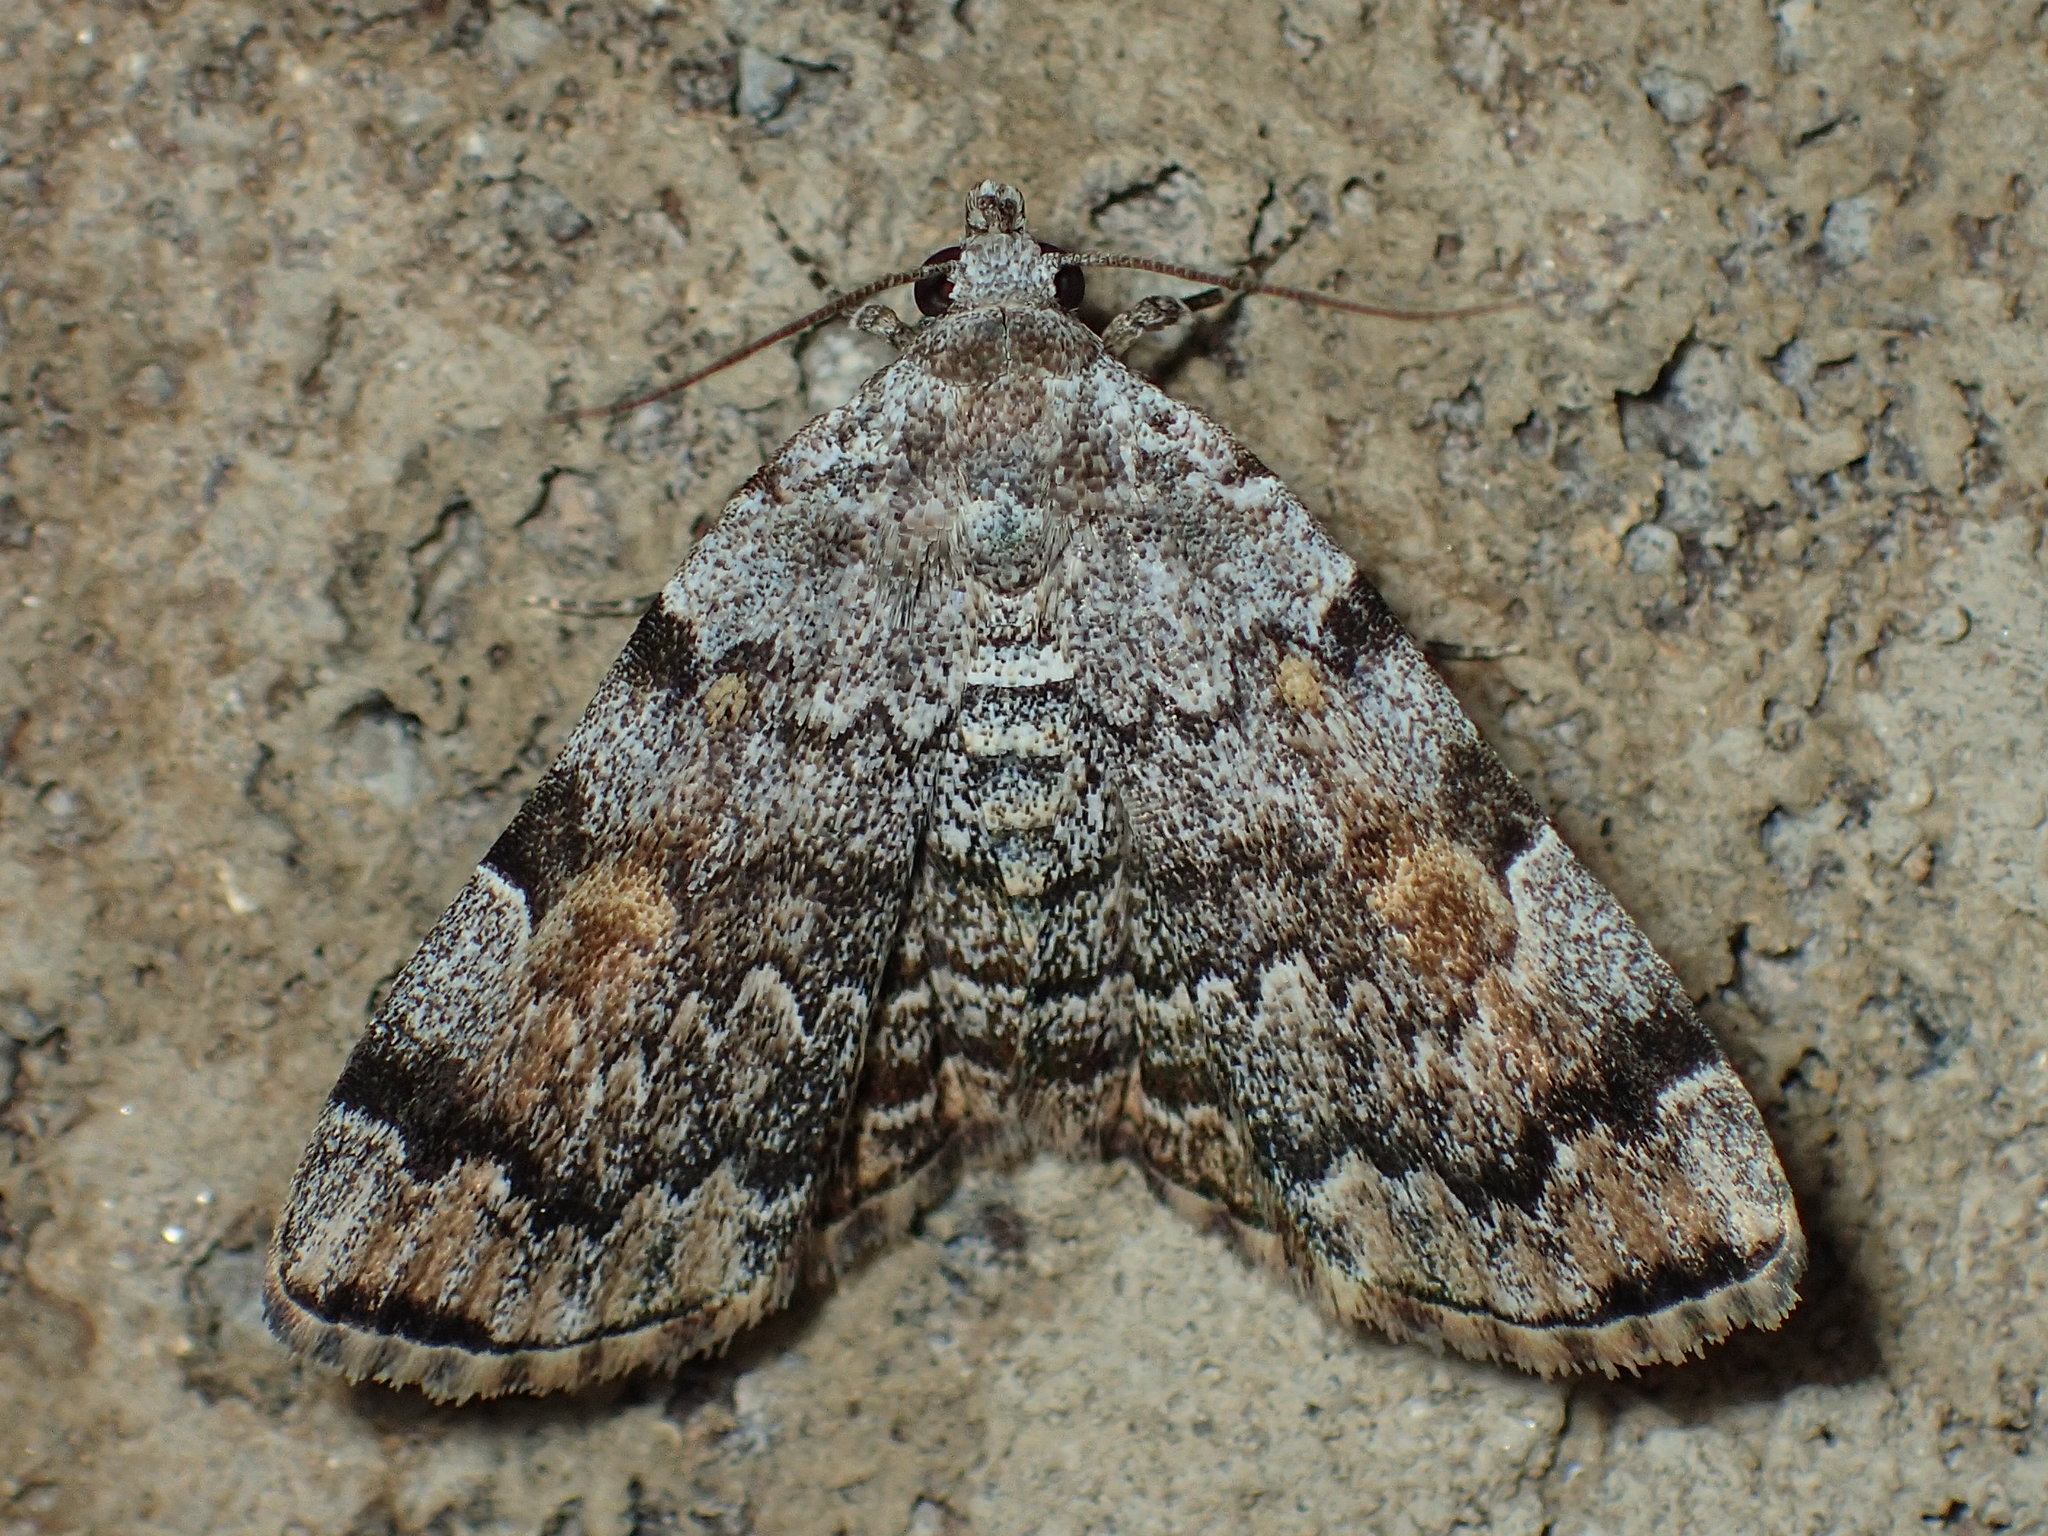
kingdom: Animalia
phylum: Arthropoda
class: Insecta
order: Lepidoptera
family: Erebidae
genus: Idia
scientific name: Idia americalis
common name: American idia moth
